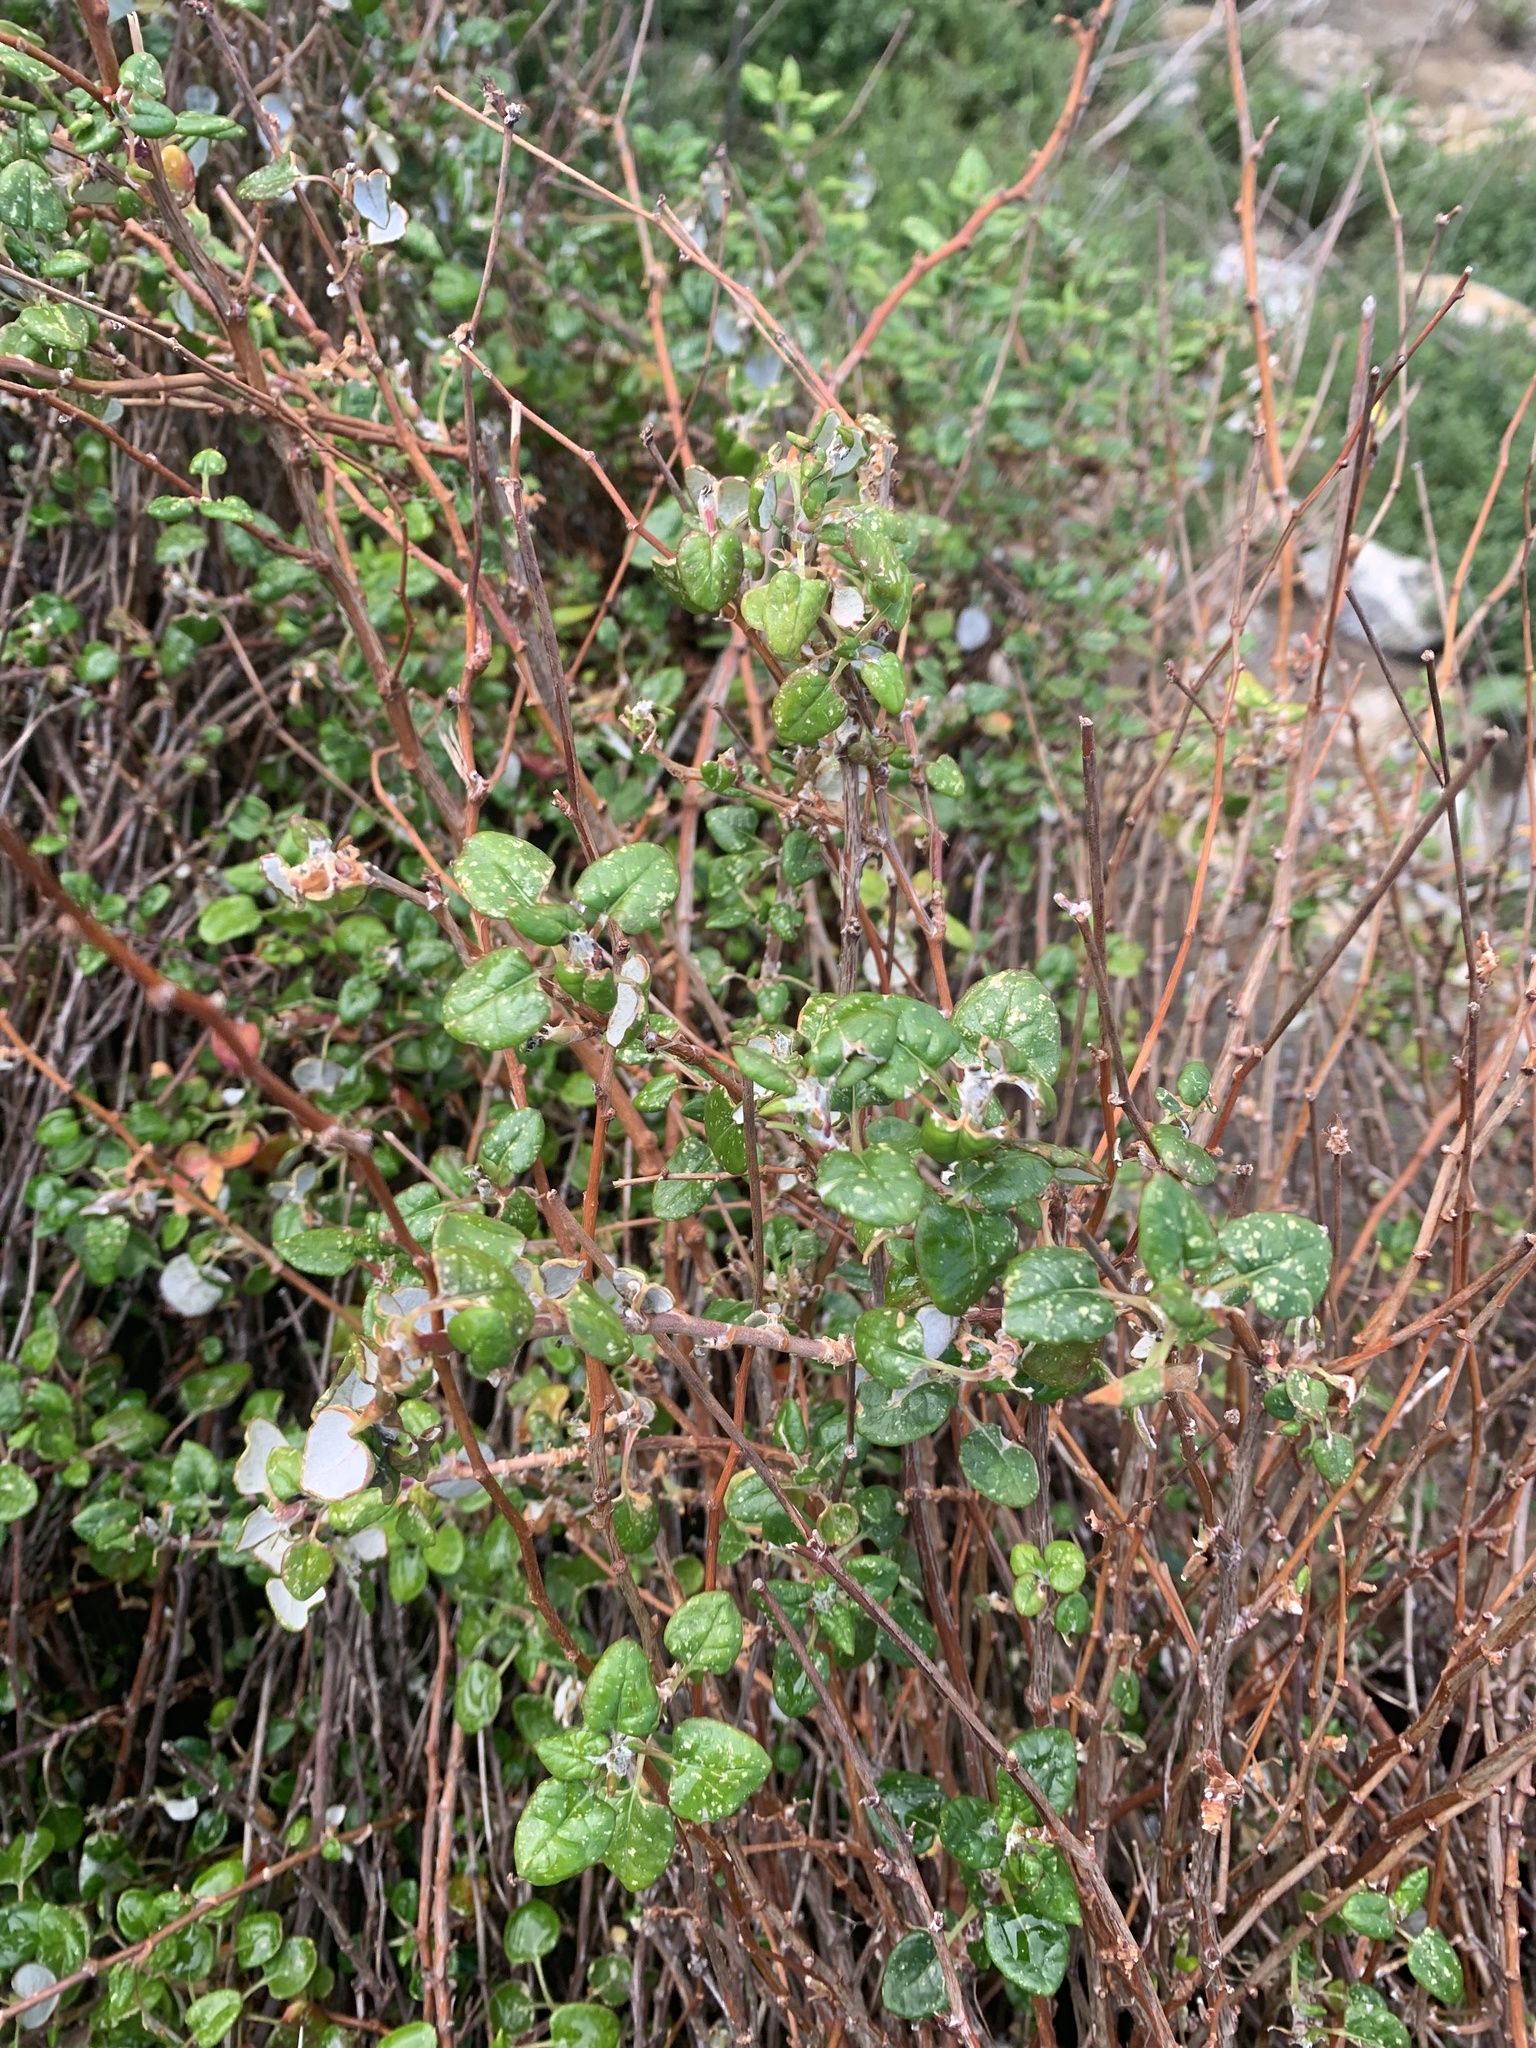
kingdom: Plantae
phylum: Tracheophyta
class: Magnoliopsida
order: Caryophyllales
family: Polygonaceae
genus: Eriogonum
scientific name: Eriogonum parvifolium
